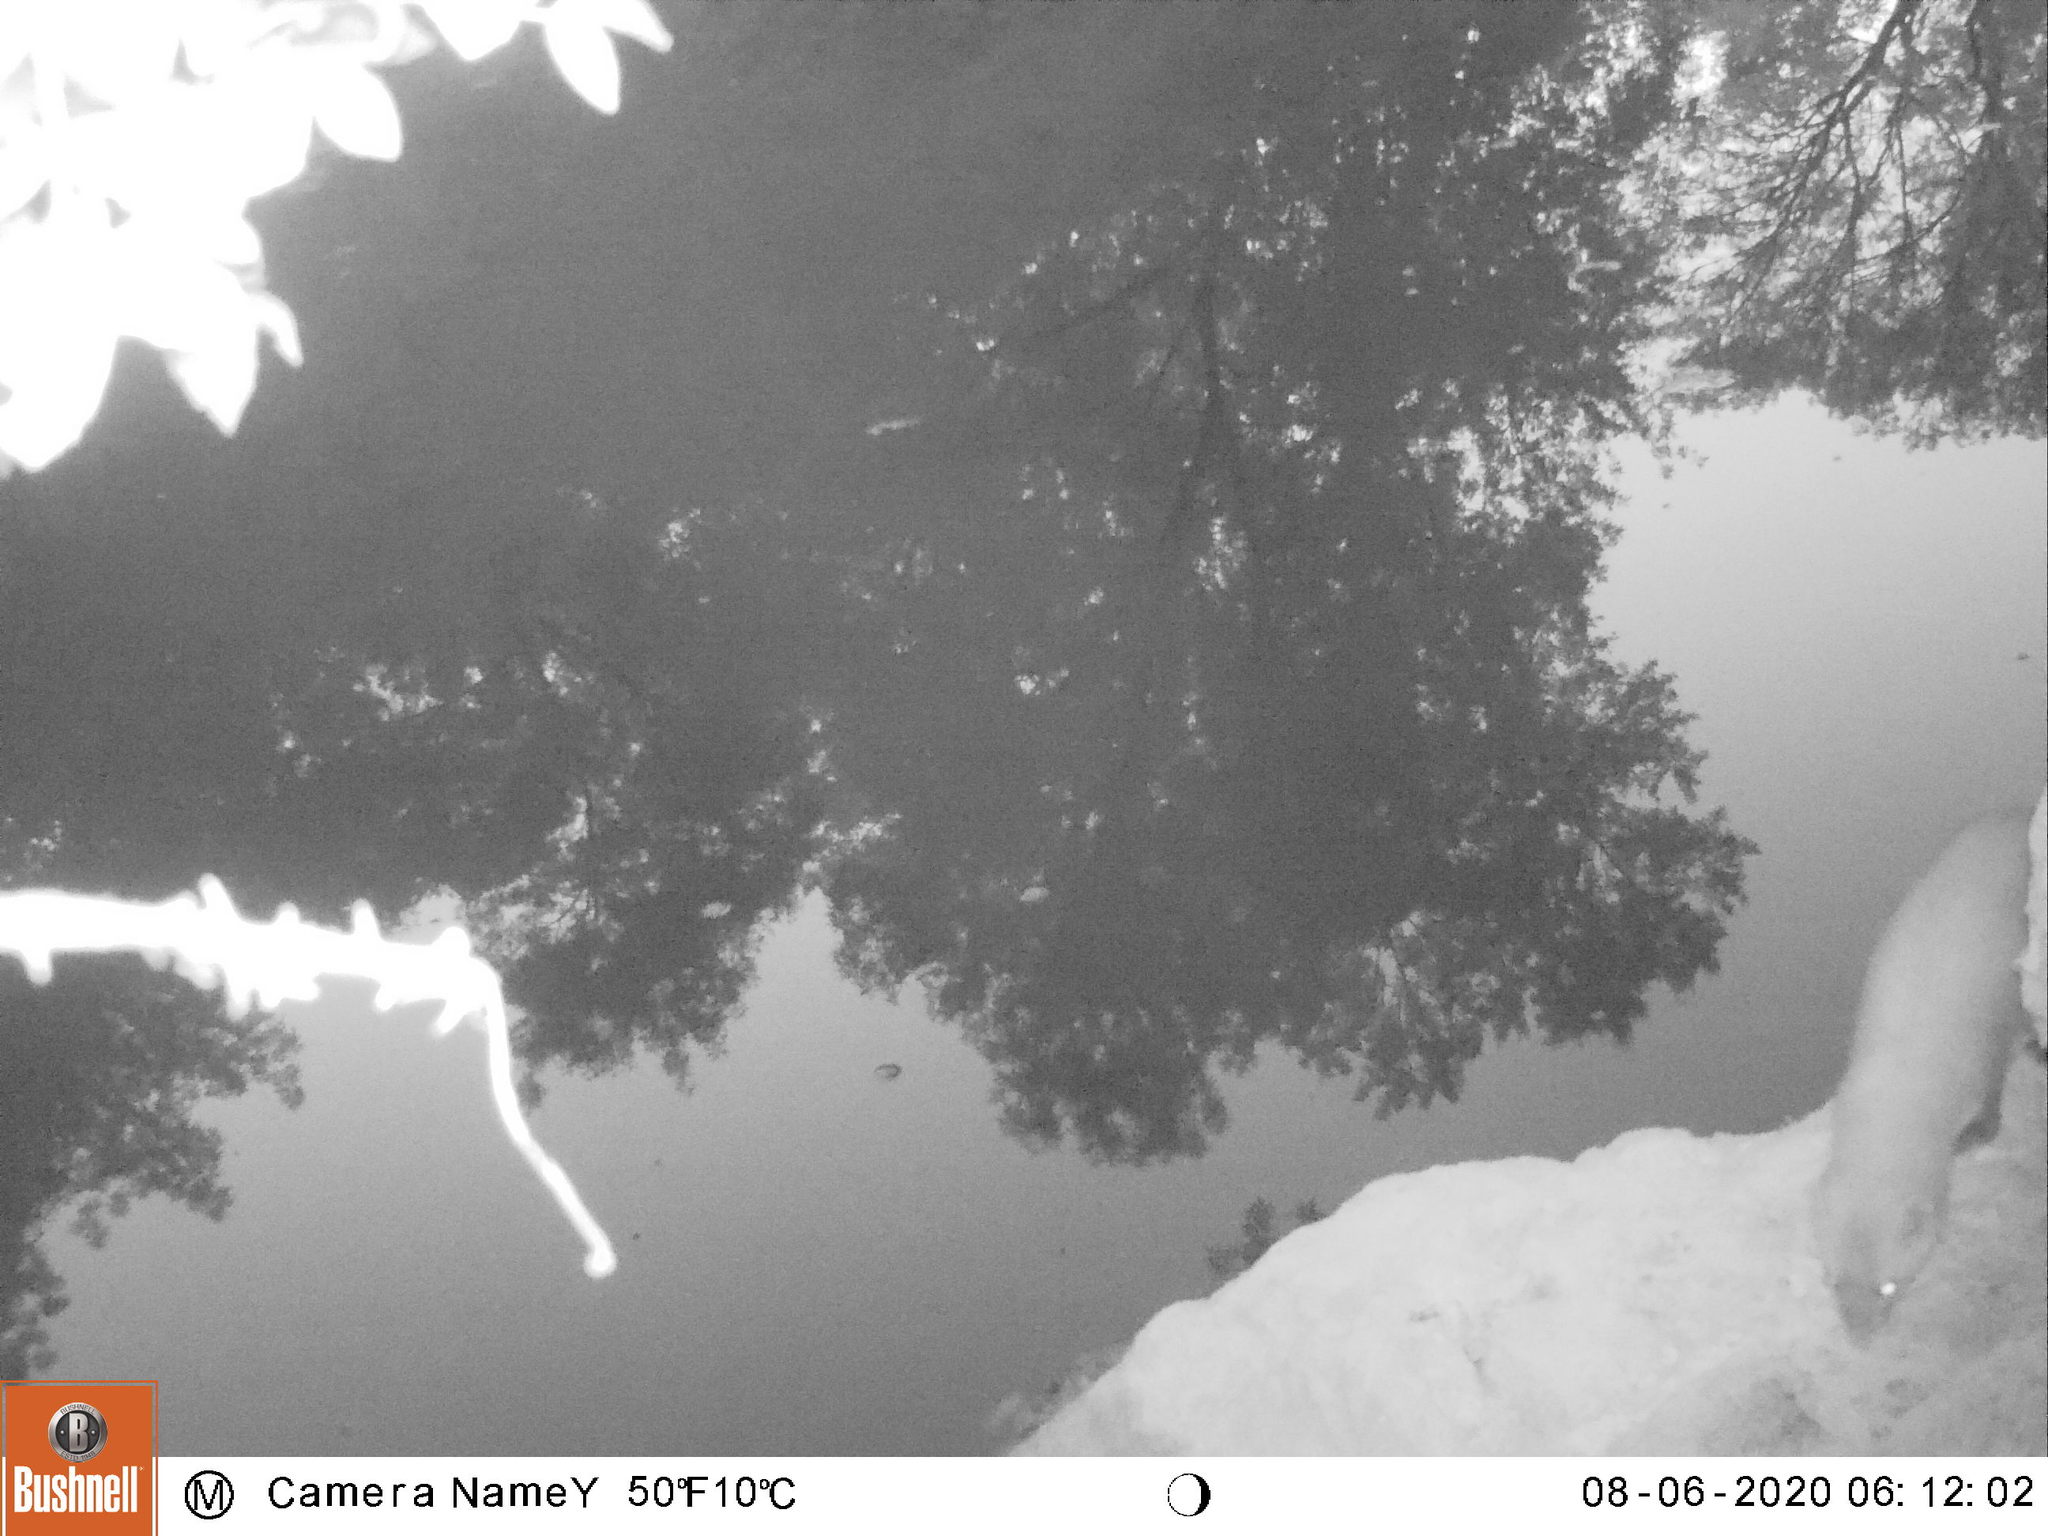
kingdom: Animalia
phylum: Chordata
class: Mammalia
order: Carnivora
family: Mustelidae
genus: Martes
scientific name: Martes foina
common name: Beech marten
